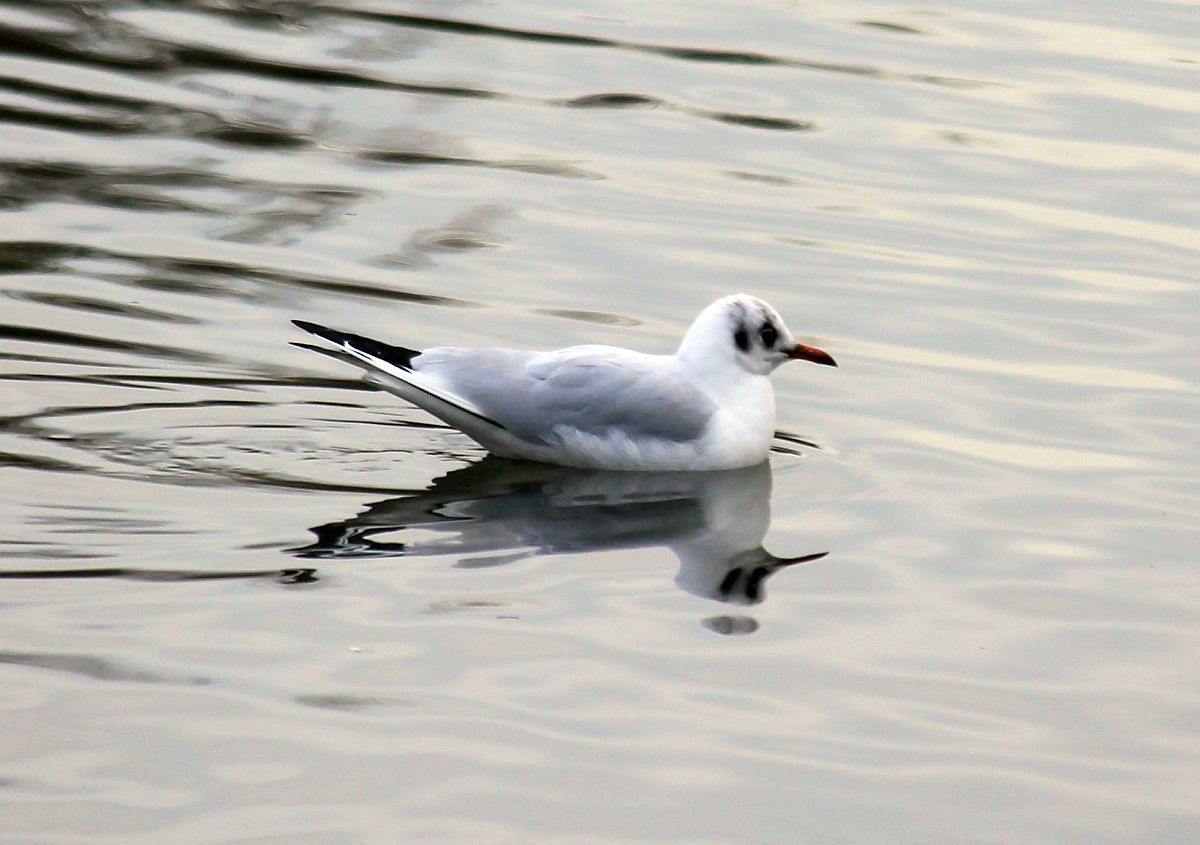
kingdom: Animalia
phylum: Chordata
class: Aves
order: Charadriiformes
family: Laridae
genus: Chroicocephalus
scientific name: Chroicocephalus ridibundus
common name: Black-headed gull
